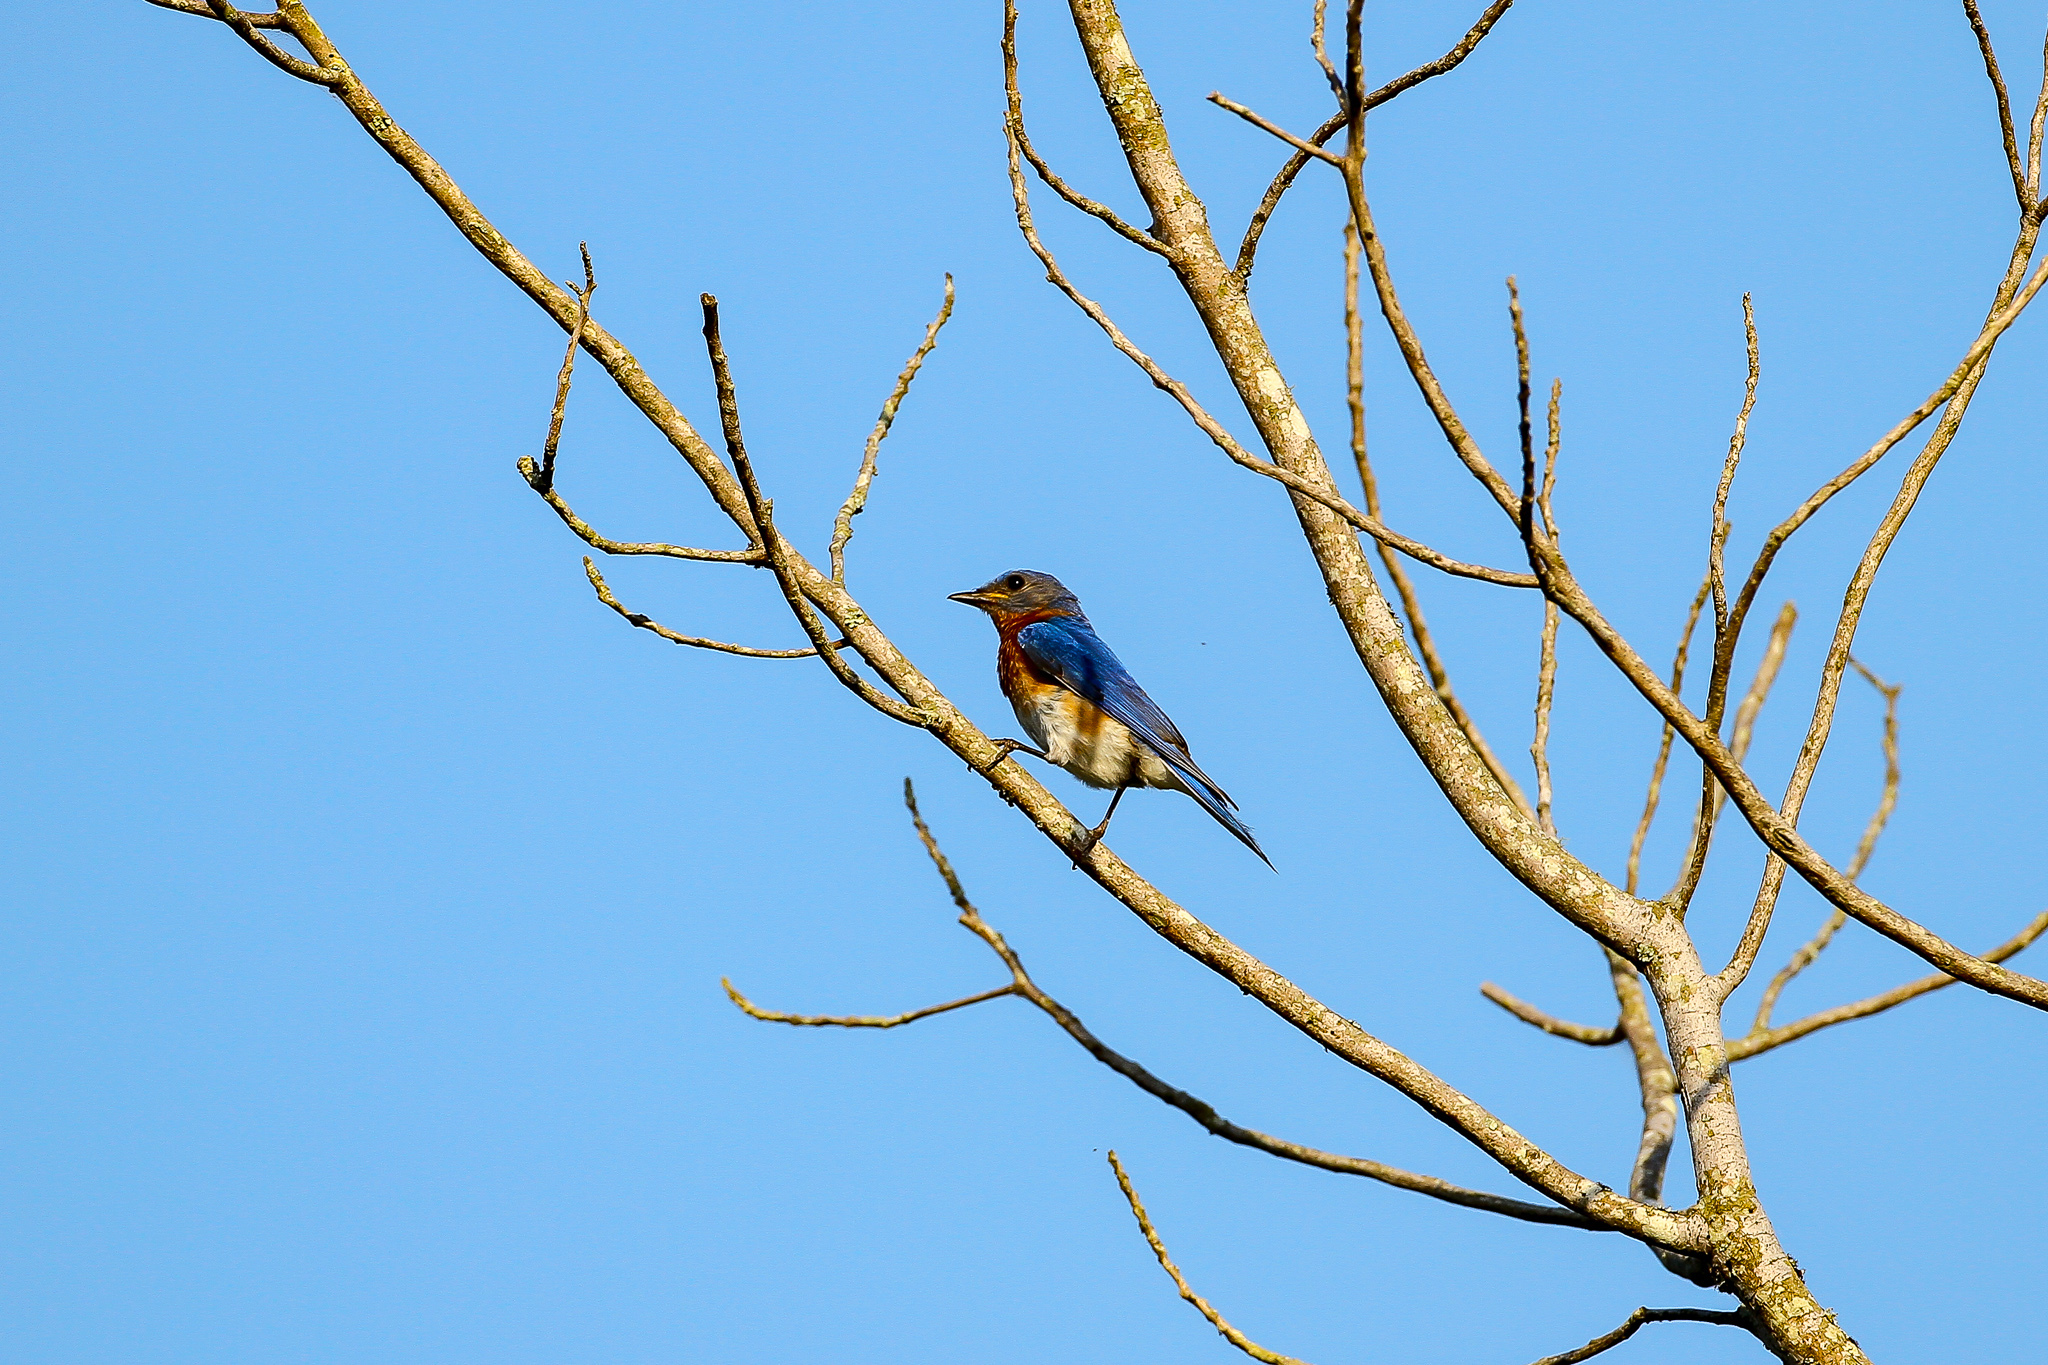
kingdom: Animalia
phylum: Chordata
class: Aves
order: Passeriformes
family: Turdidae
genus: Sialia
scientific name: Sialia sialis
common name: Eastern bluebird
